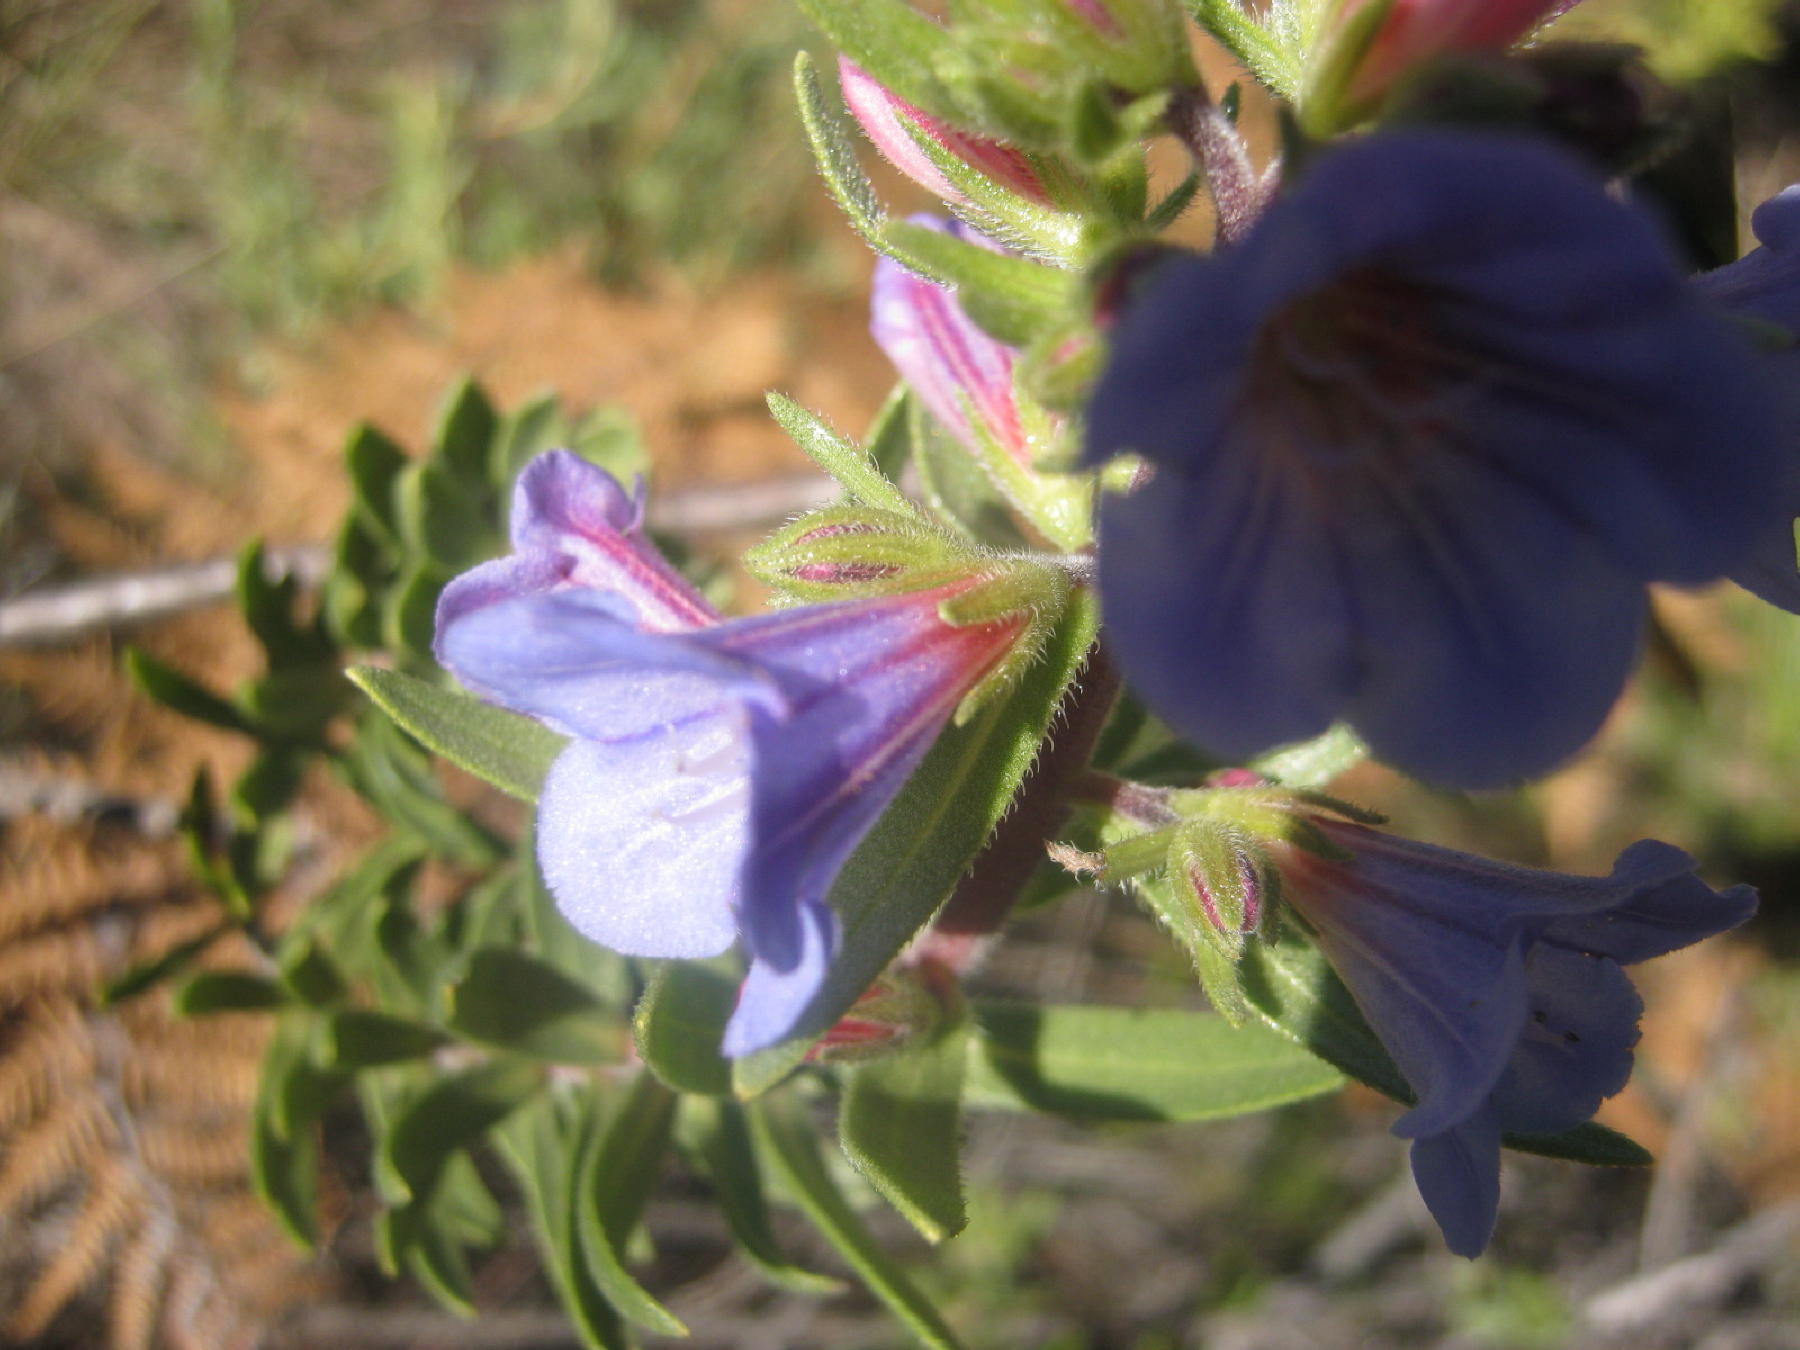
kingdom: Plantae
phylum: Tracheophyta
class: Magnoliopsida
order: Boraginales
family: Boraginaceae
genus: Lobostemon
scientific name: Lobostemon fruticosus
